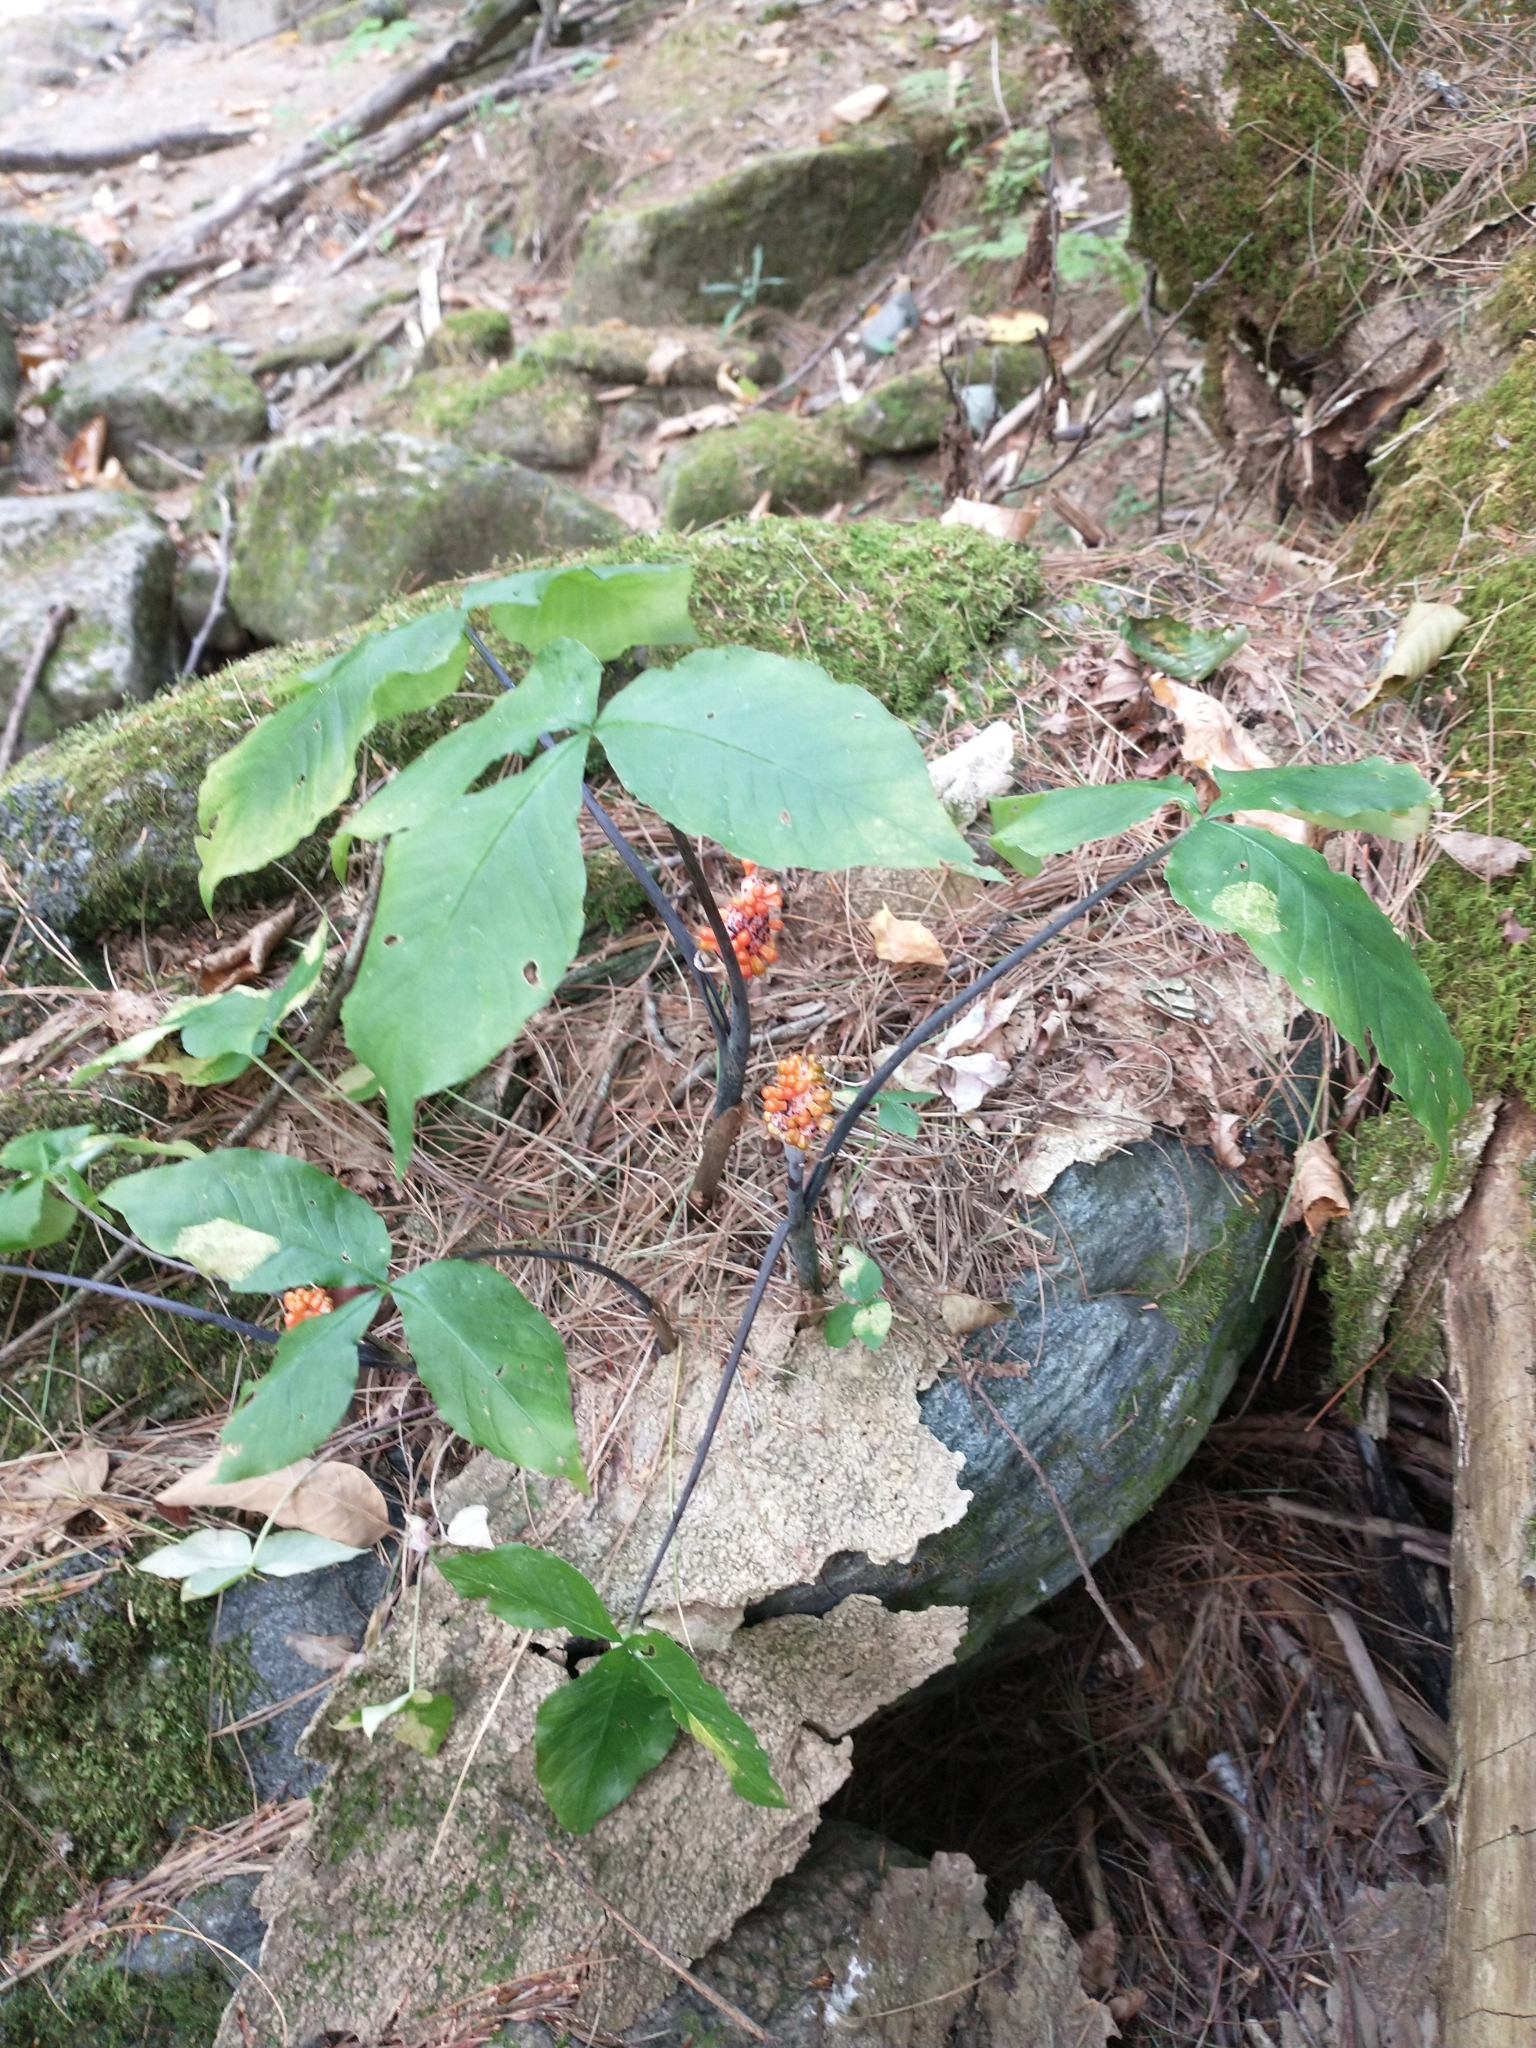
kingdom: Plantae
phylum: Tracheophyta
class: Liliopsida
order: Alismatales
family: Araceae
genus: Arisaema
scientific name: Arisaema triphyllum
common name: Jack-in-the-pulpit
